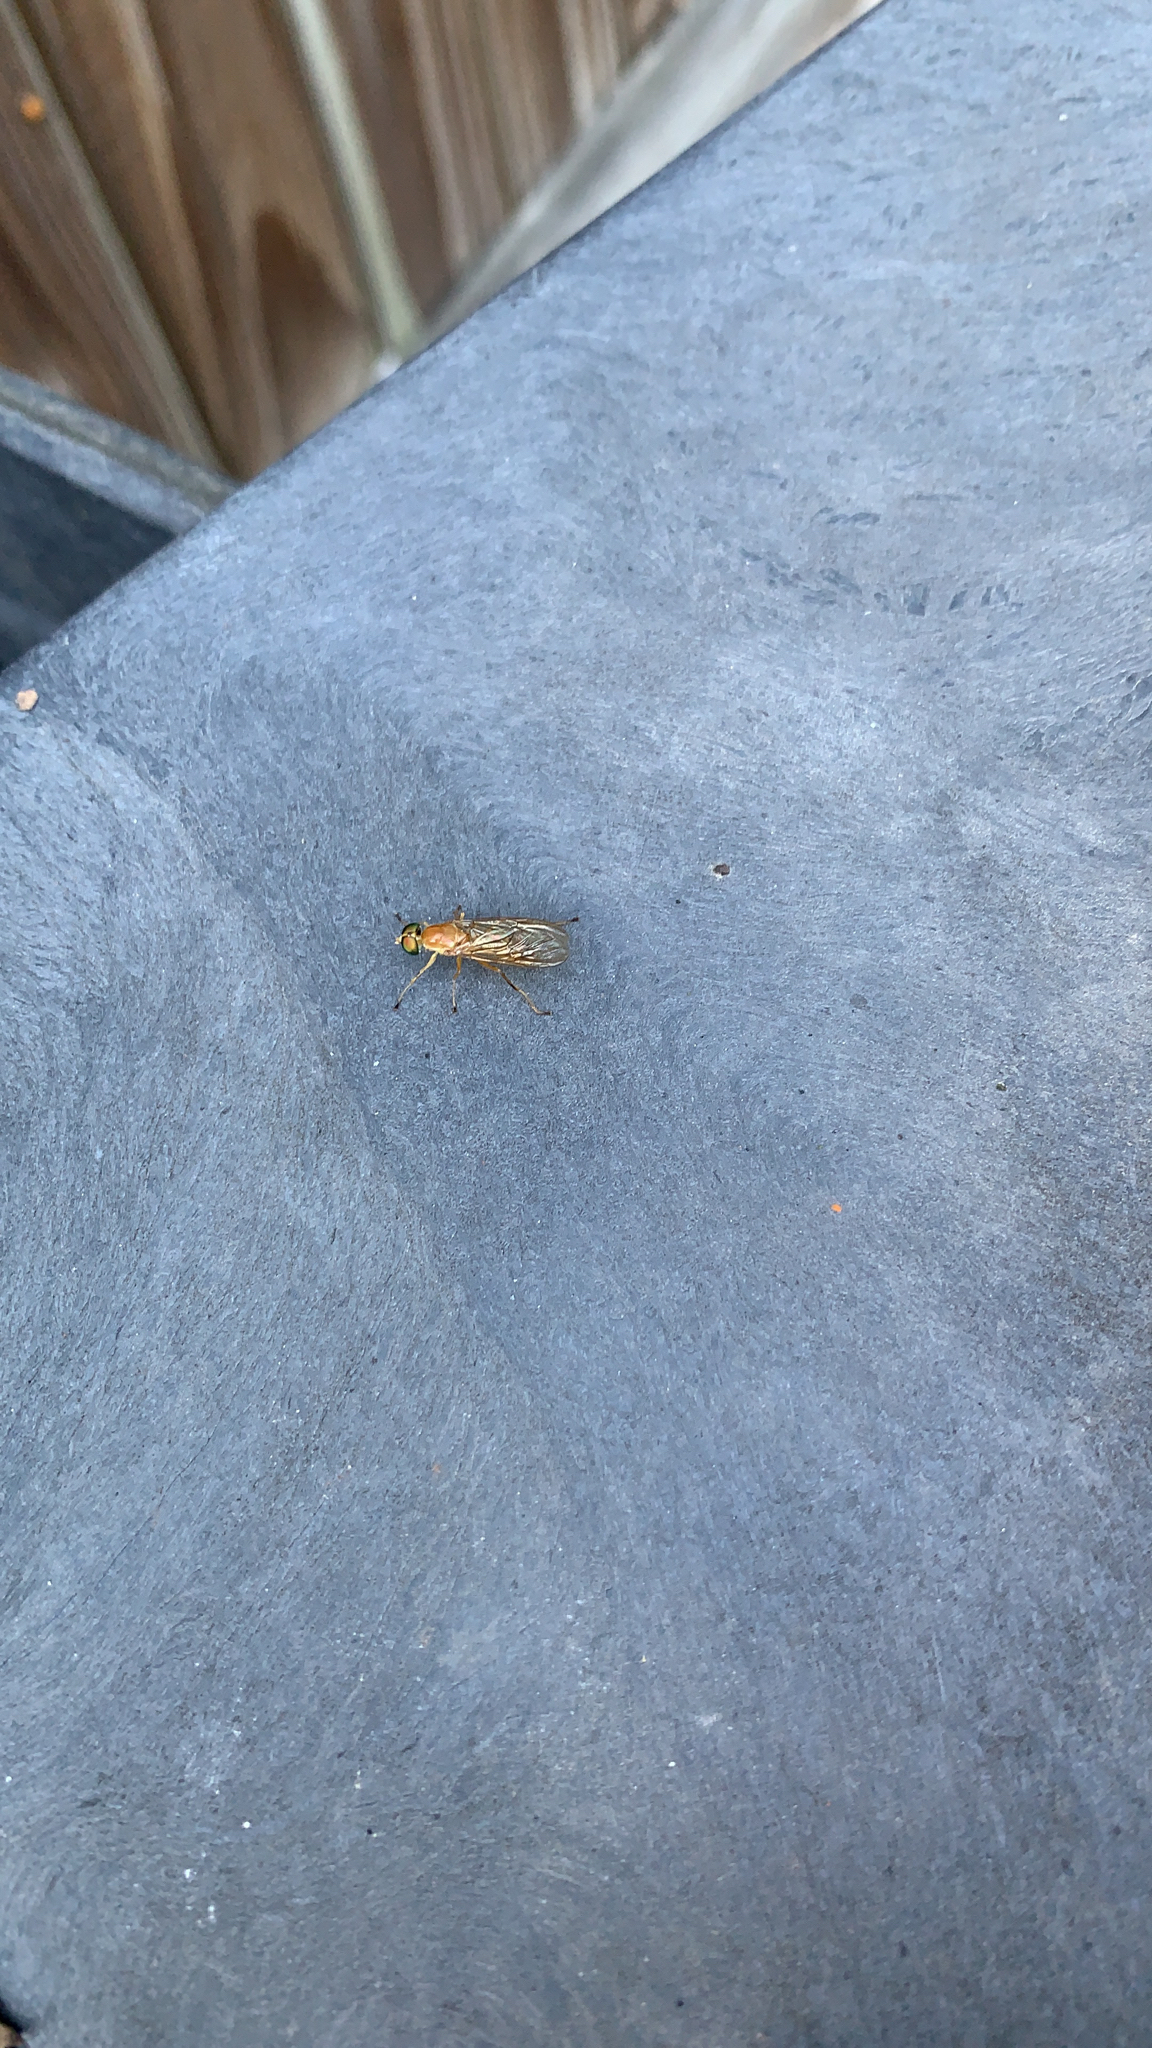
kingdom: Animalia
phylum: Arthropoda
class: Insecta
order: Diptera
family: Stratiomyidae
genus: Ptecticus
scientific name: Ptecticus trivittatus
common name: Compost fly
